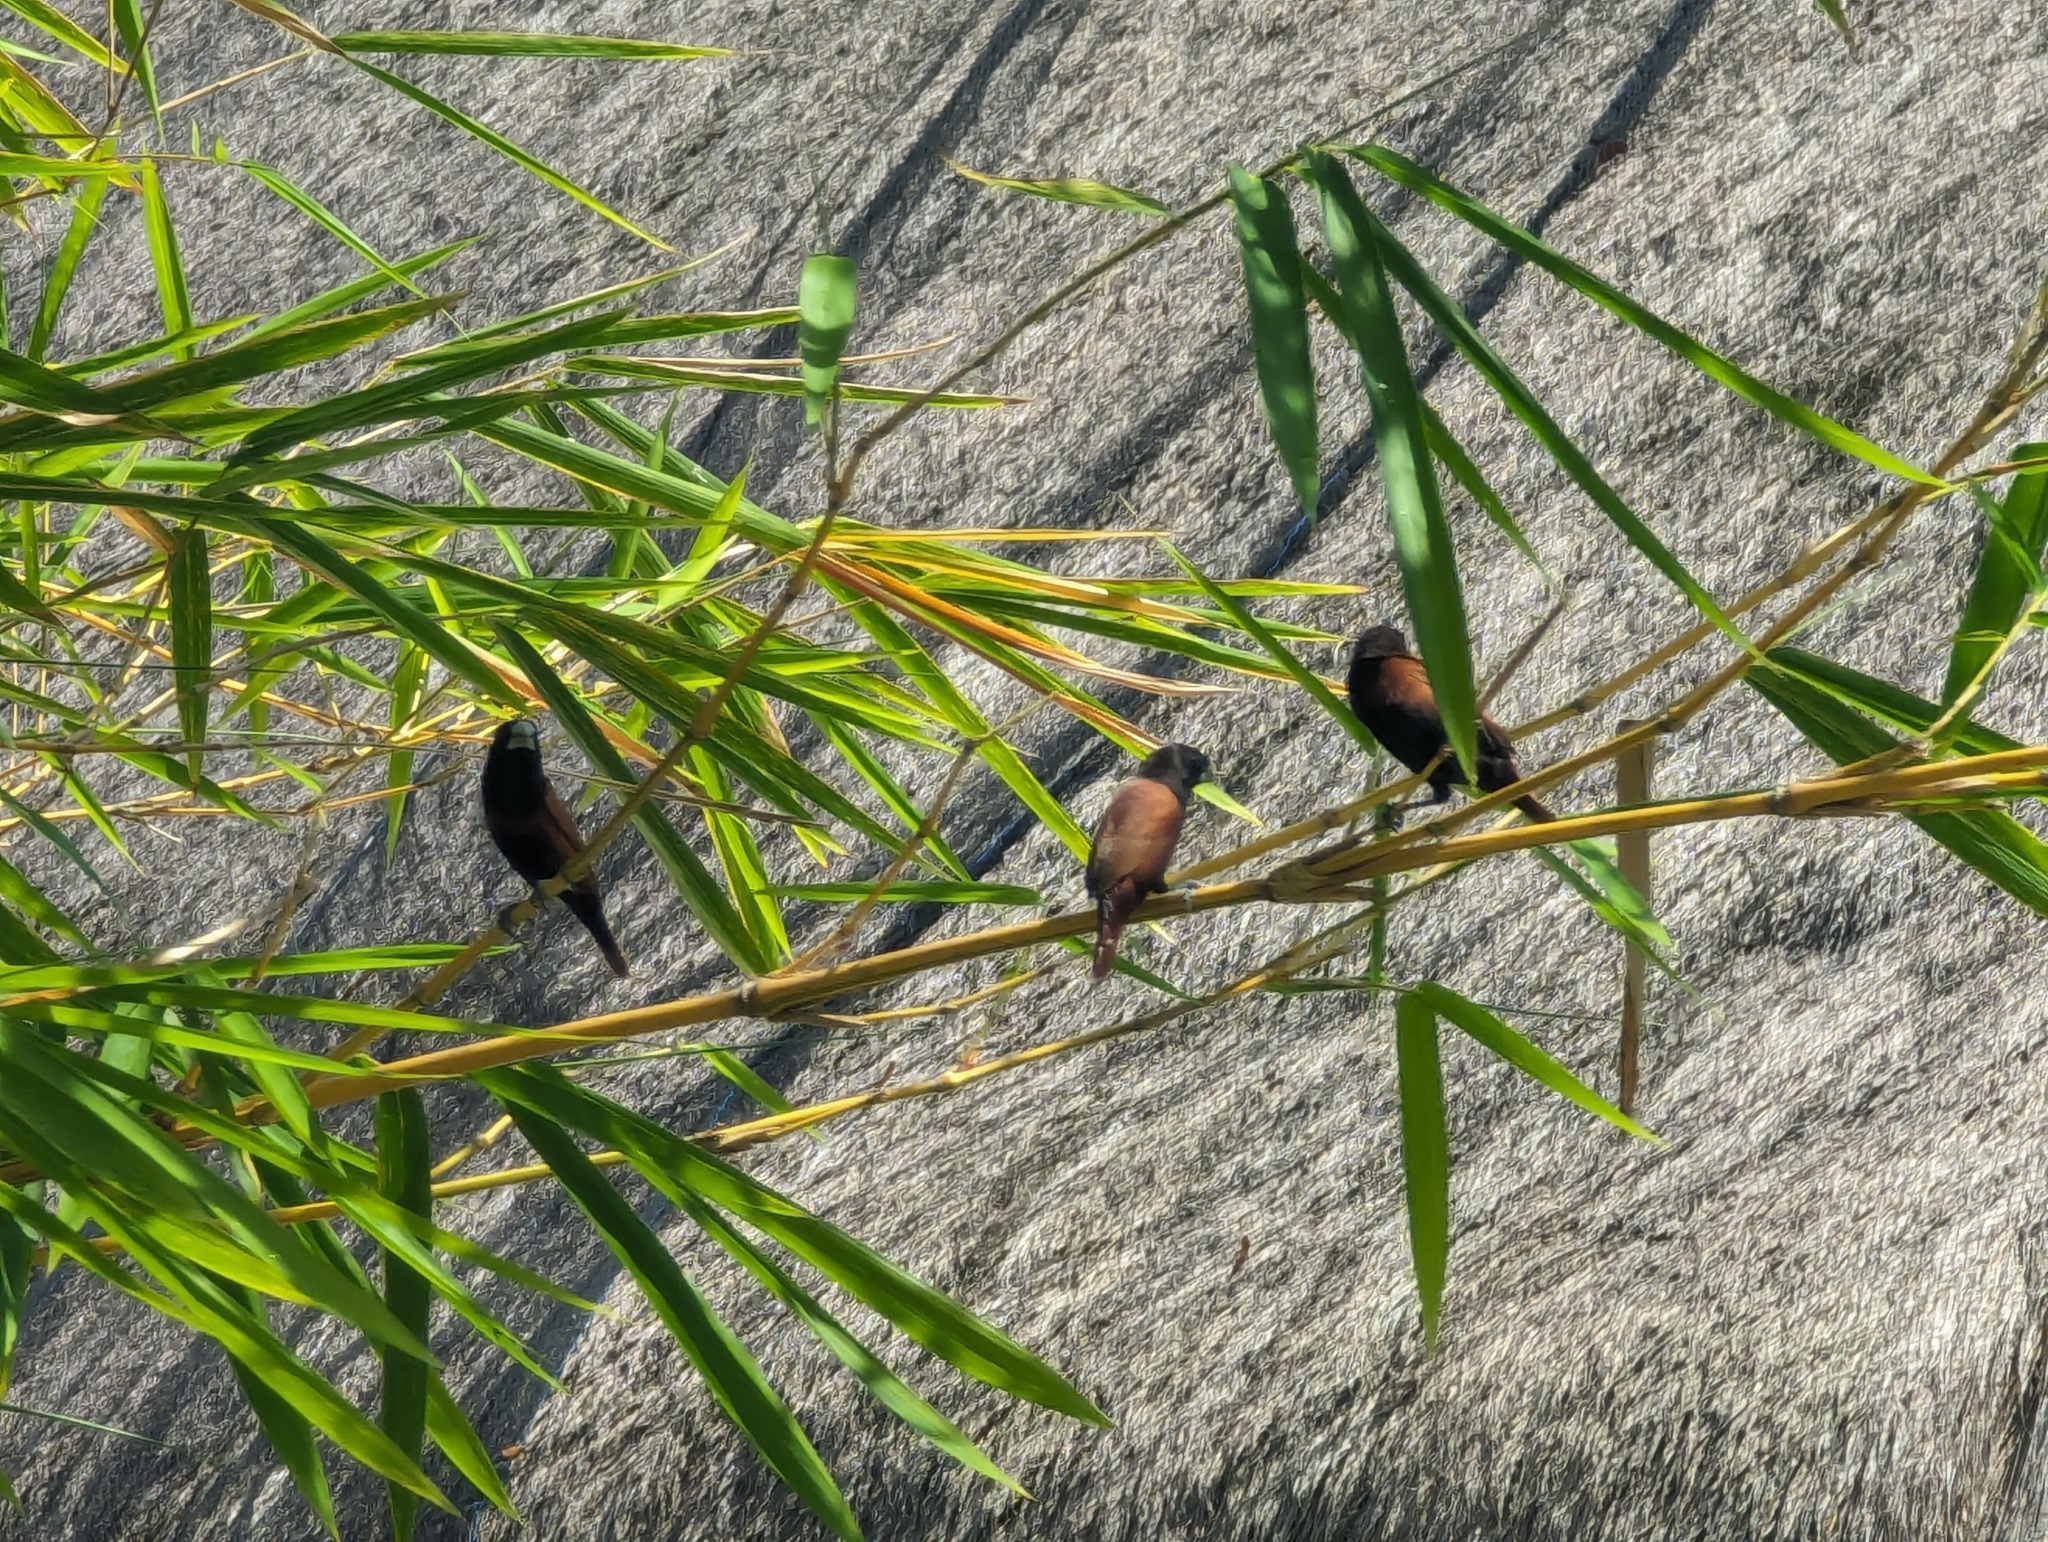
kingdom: Animalia
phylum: Chordata
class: Aves
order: Passeriformes
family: Estrildidae
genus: Lonchura
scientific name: Lonchura atricapilla
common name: Chestnut munia
